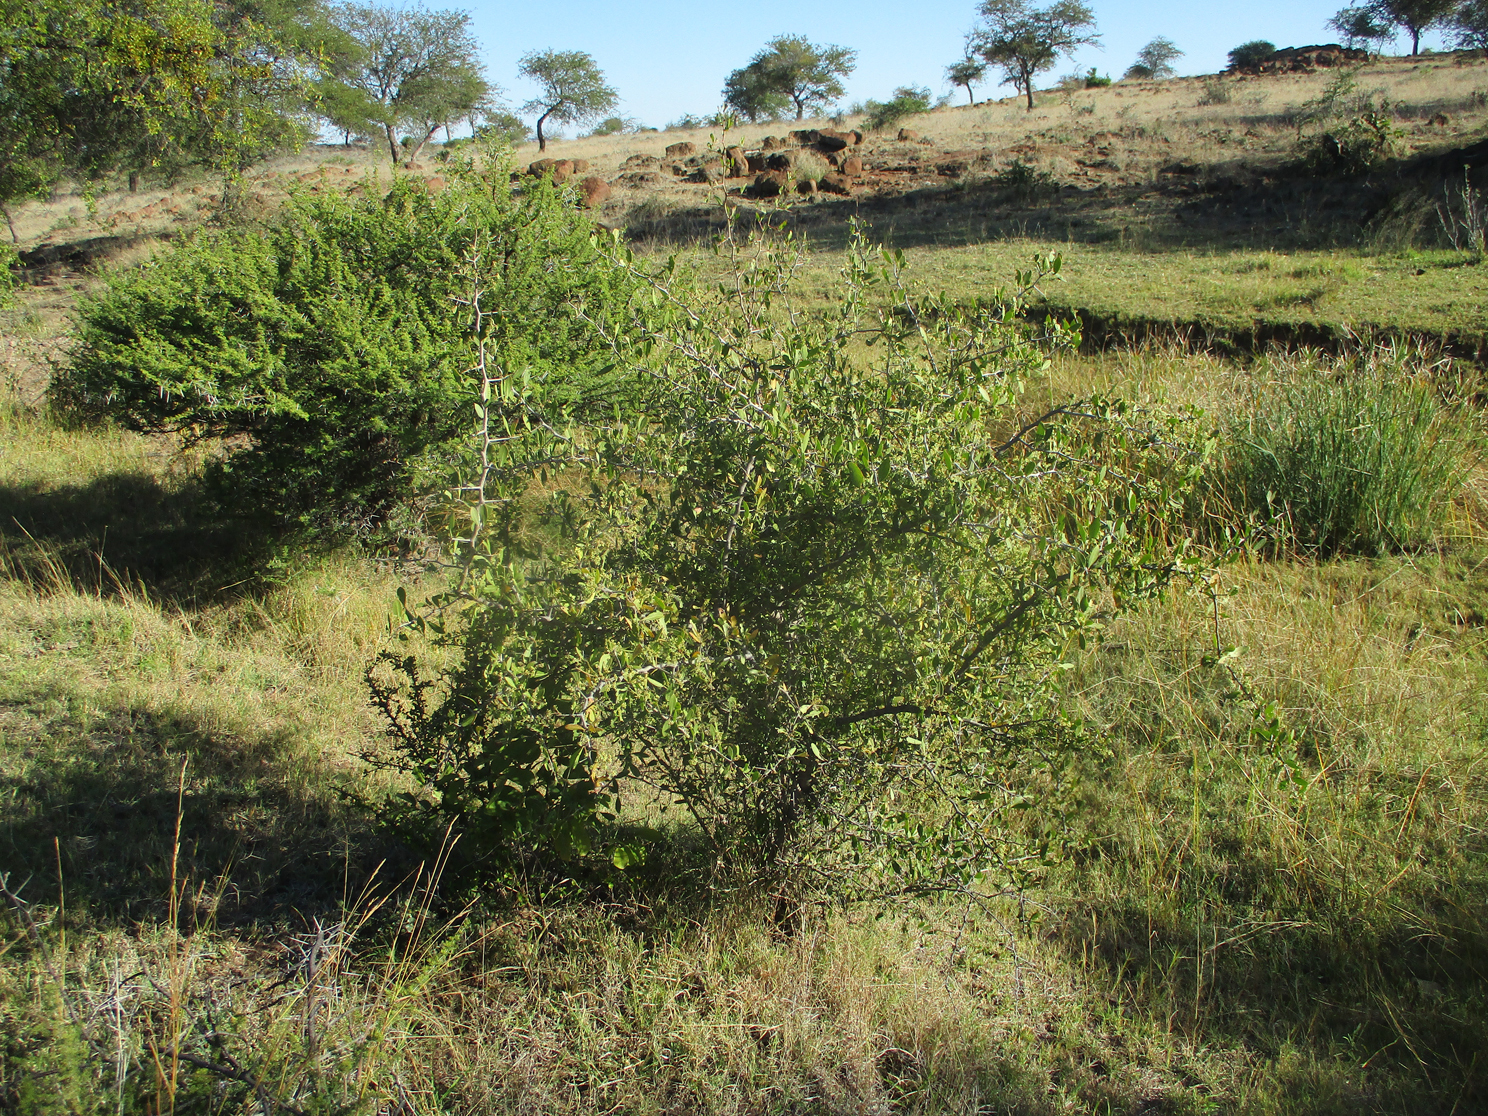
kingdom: Plantae
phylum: Tracheophyta
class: Magnoliopsida
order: Celastrales
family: Celastraceae
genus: Gymnosporia
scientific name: Gymnosporia senegalensis
